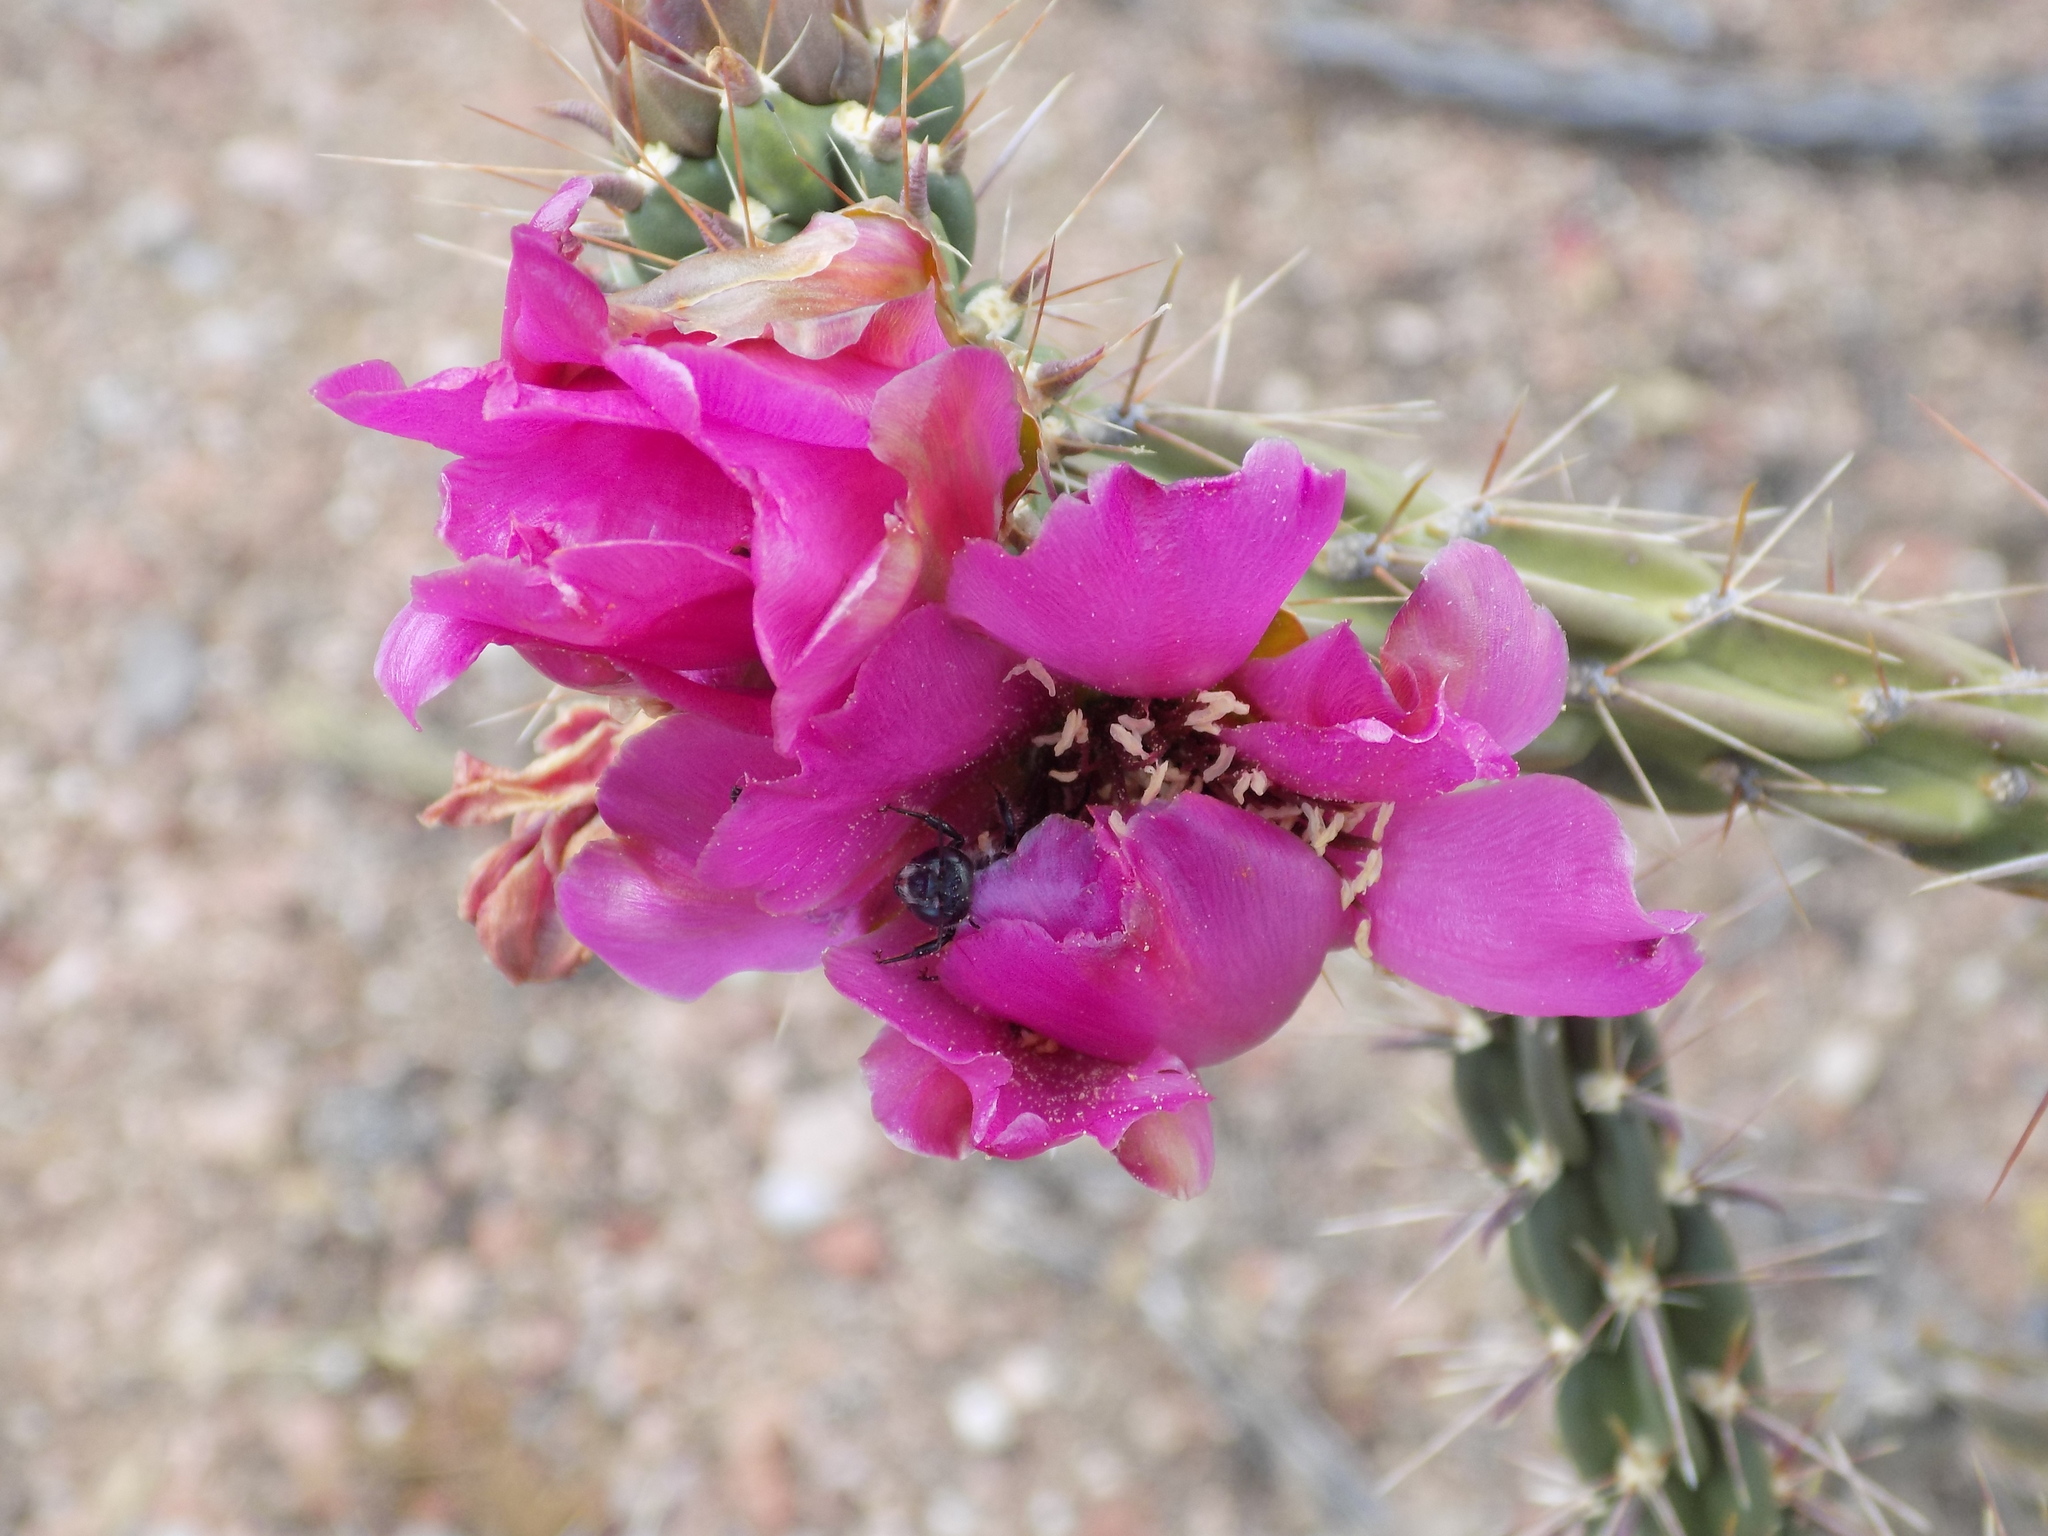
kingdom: Plantae
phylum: Tracheophyta
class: Magnoliopsida
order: Caryophyllales
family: Cactaceae
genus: Cylindropuntia
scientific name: Cylindropuntia imbricata
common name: Candelabrum cactus
